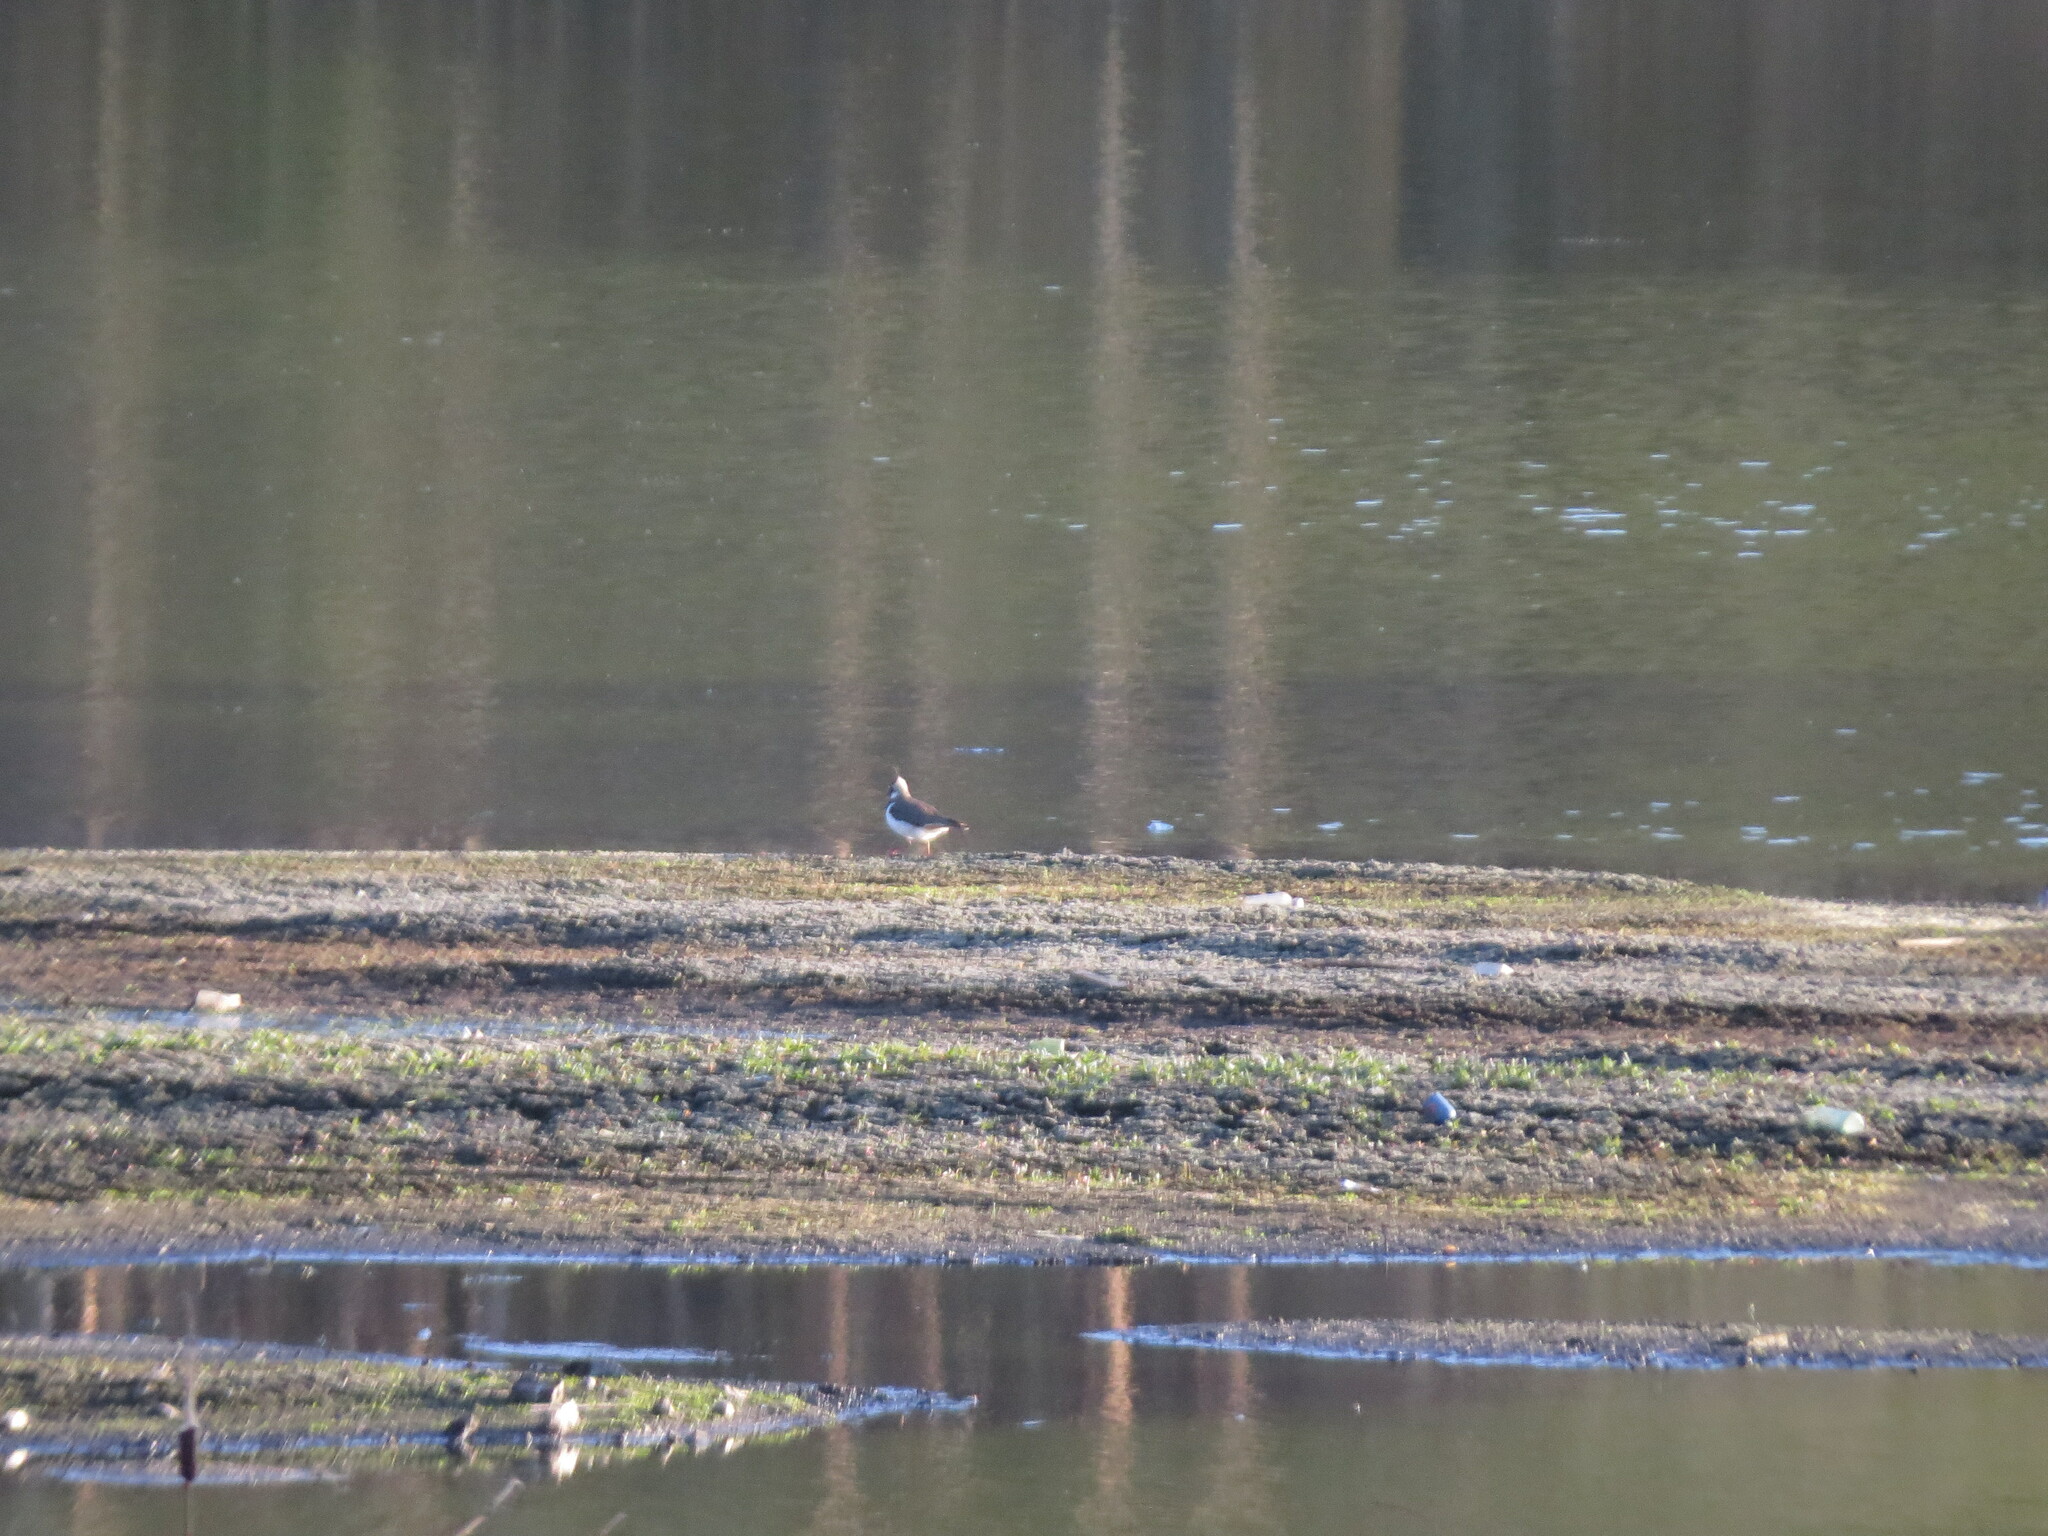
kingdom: Animalia
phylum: Chordata
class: Aves
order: Charadriiformes
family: Charadriidae
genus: Vanellus
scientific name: Vanellus vanellus
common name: Northern lapwing
